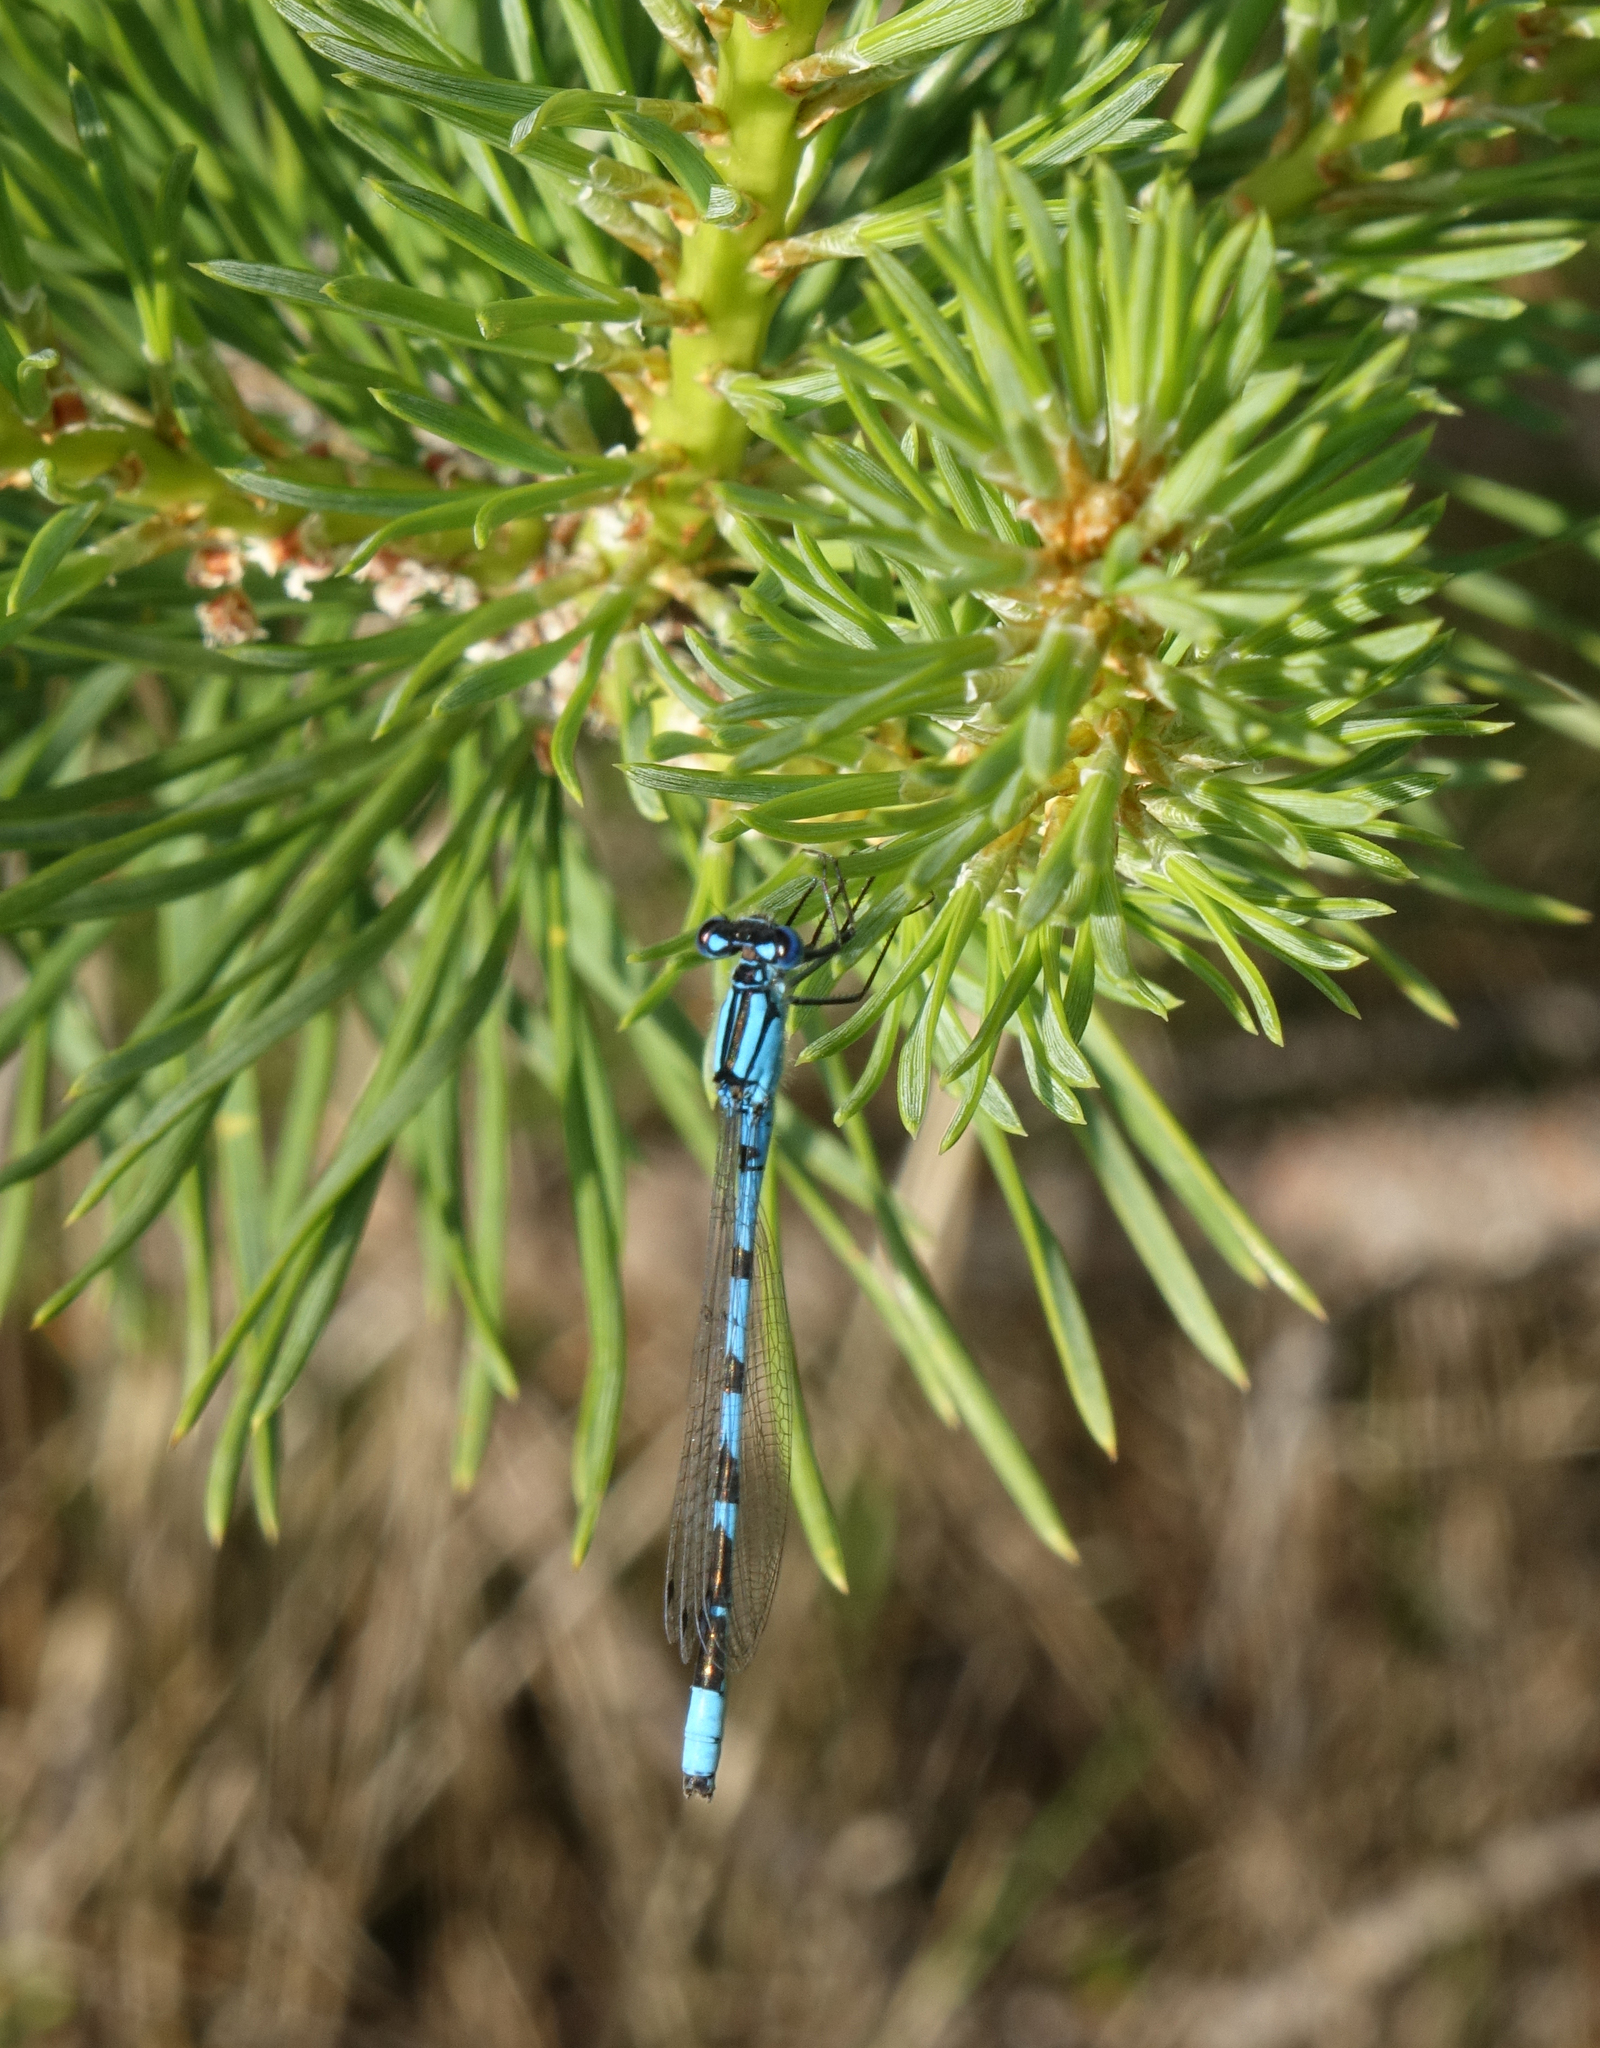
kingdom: Animalia
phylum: Arthropoda
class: Insecta
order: Odonata
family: Coenagrionidae
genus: Enallagma
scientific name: Enallagma cyathigerum
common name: Common blue damselfly
